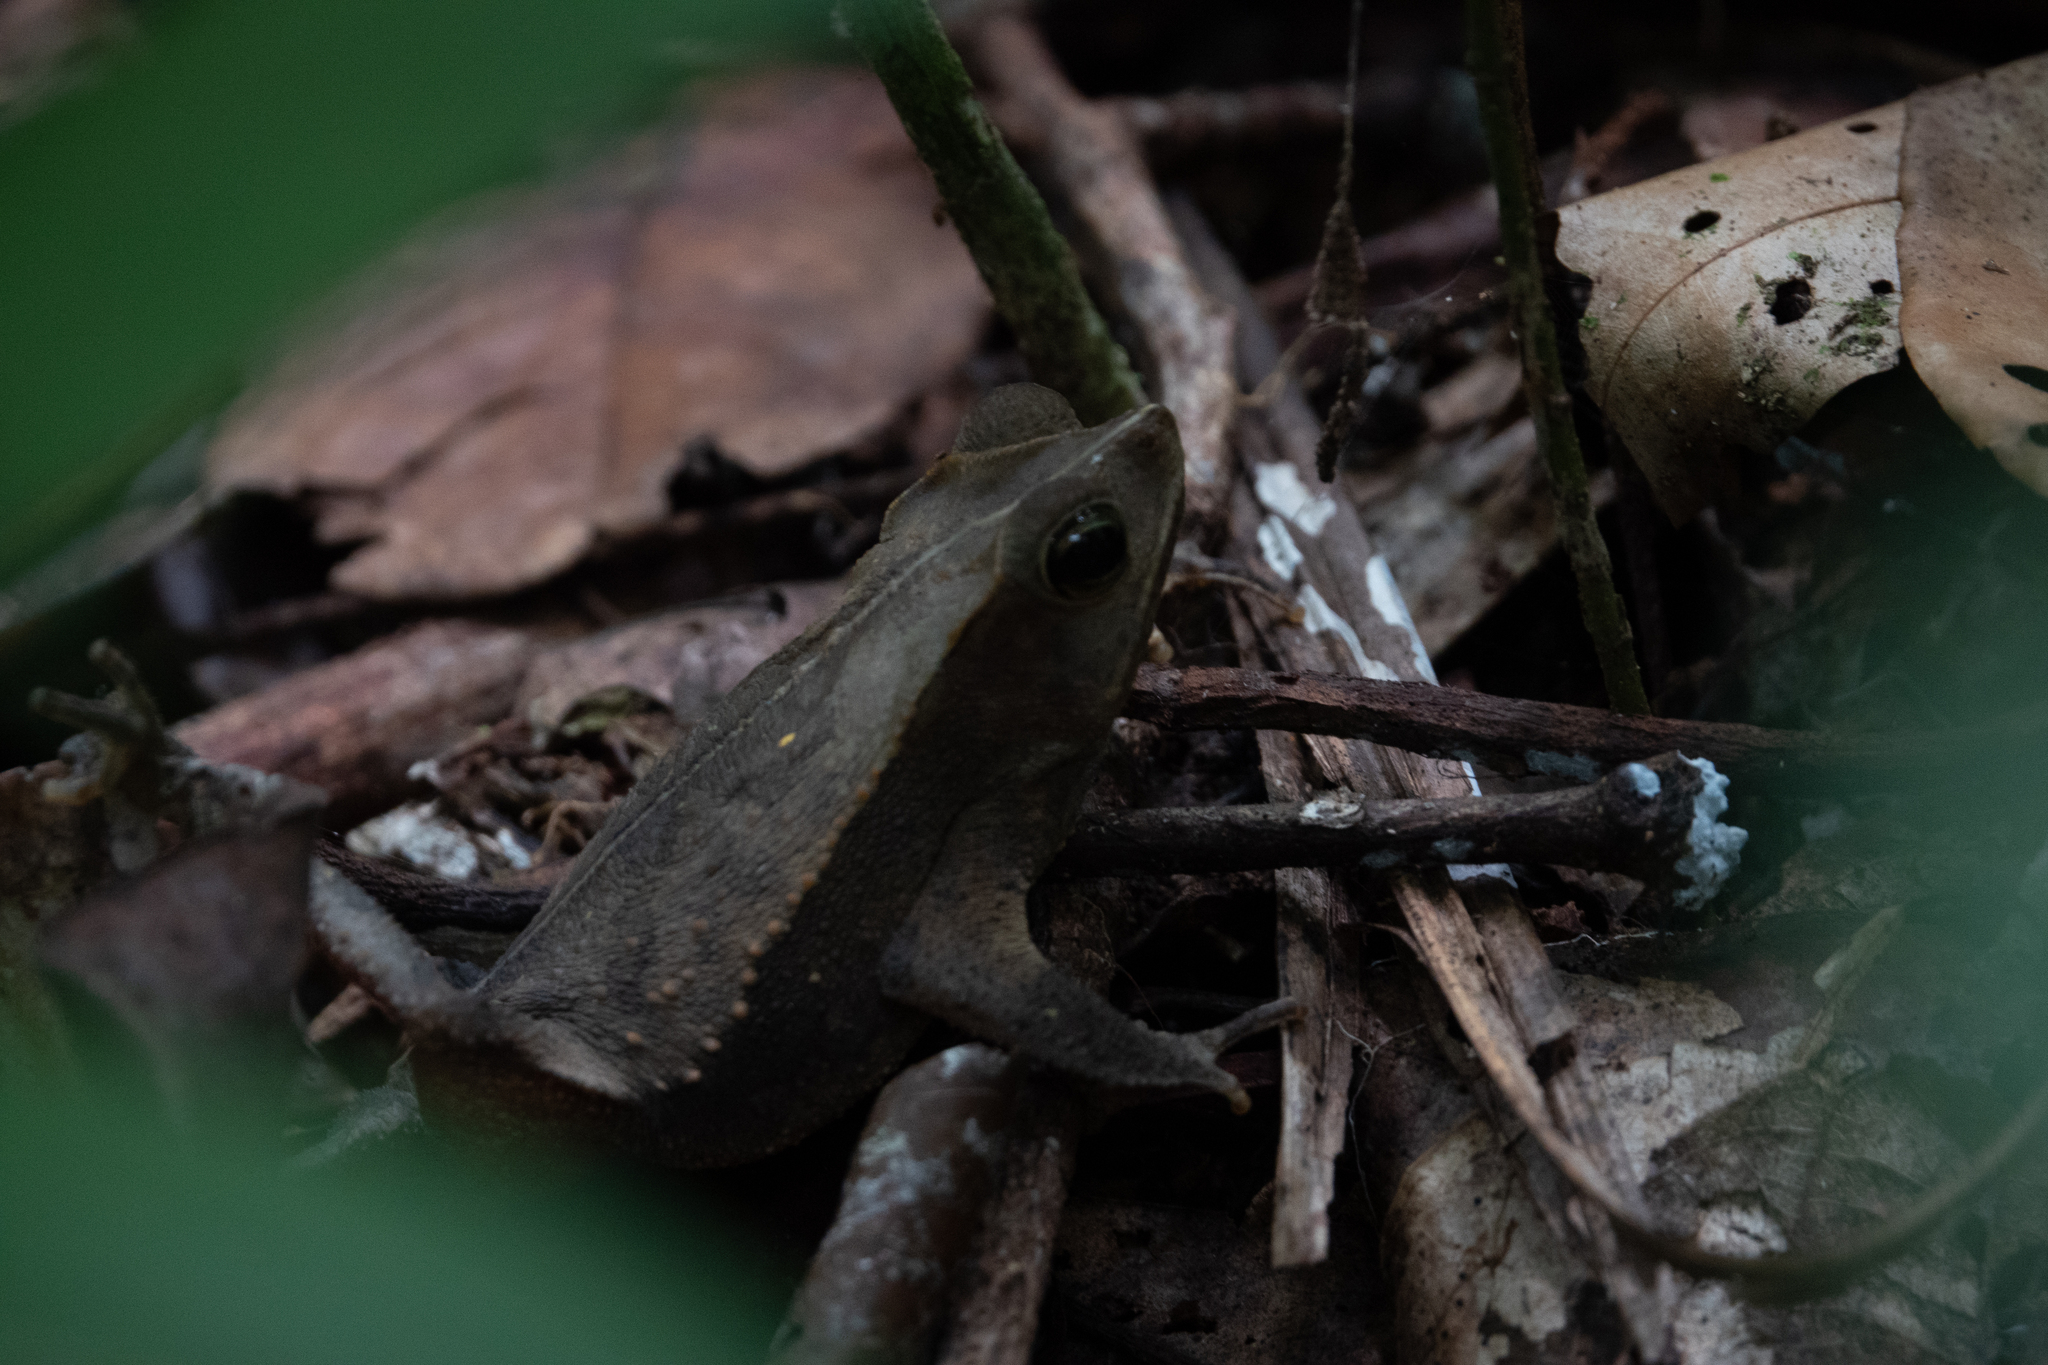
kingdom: Animalia
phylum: Chordata
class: Amphibia
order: Anura
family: Bufonidae
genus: Rhinella
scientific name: Rhinella margaritifera
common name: Mitred toad
